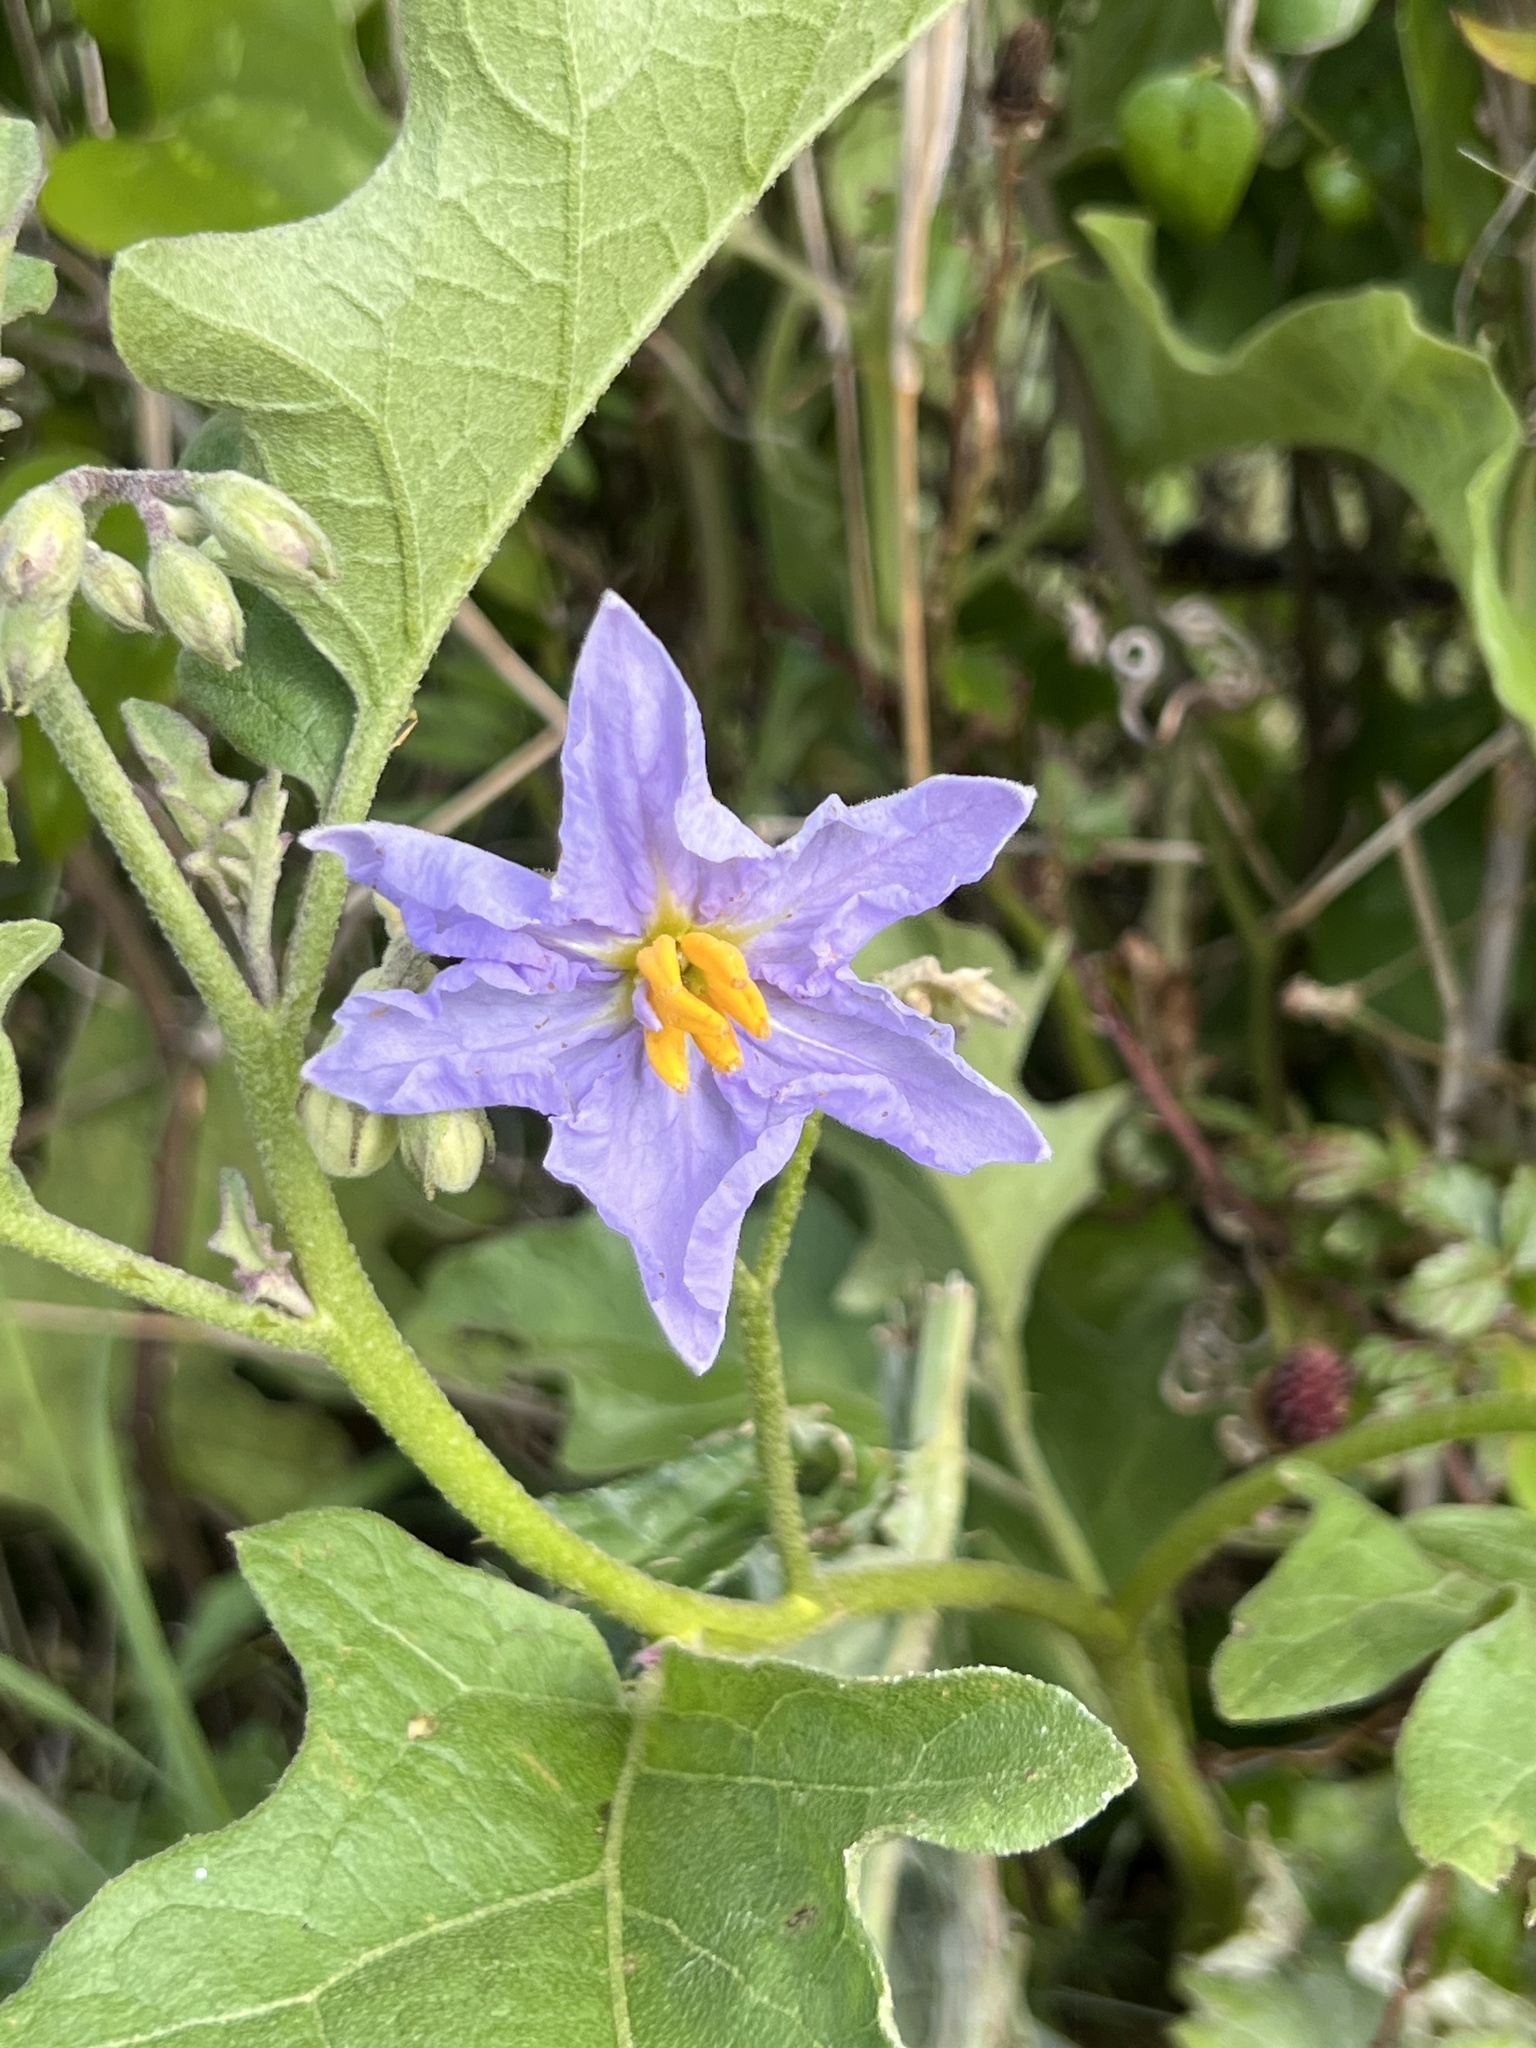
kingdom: Plantae
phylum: Tracheophyta
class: Magnoliopsida
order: Solanales
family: Solanaceae
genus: Solanum
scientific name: Solanum dimidiatum
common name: Carolina horse-nettle
